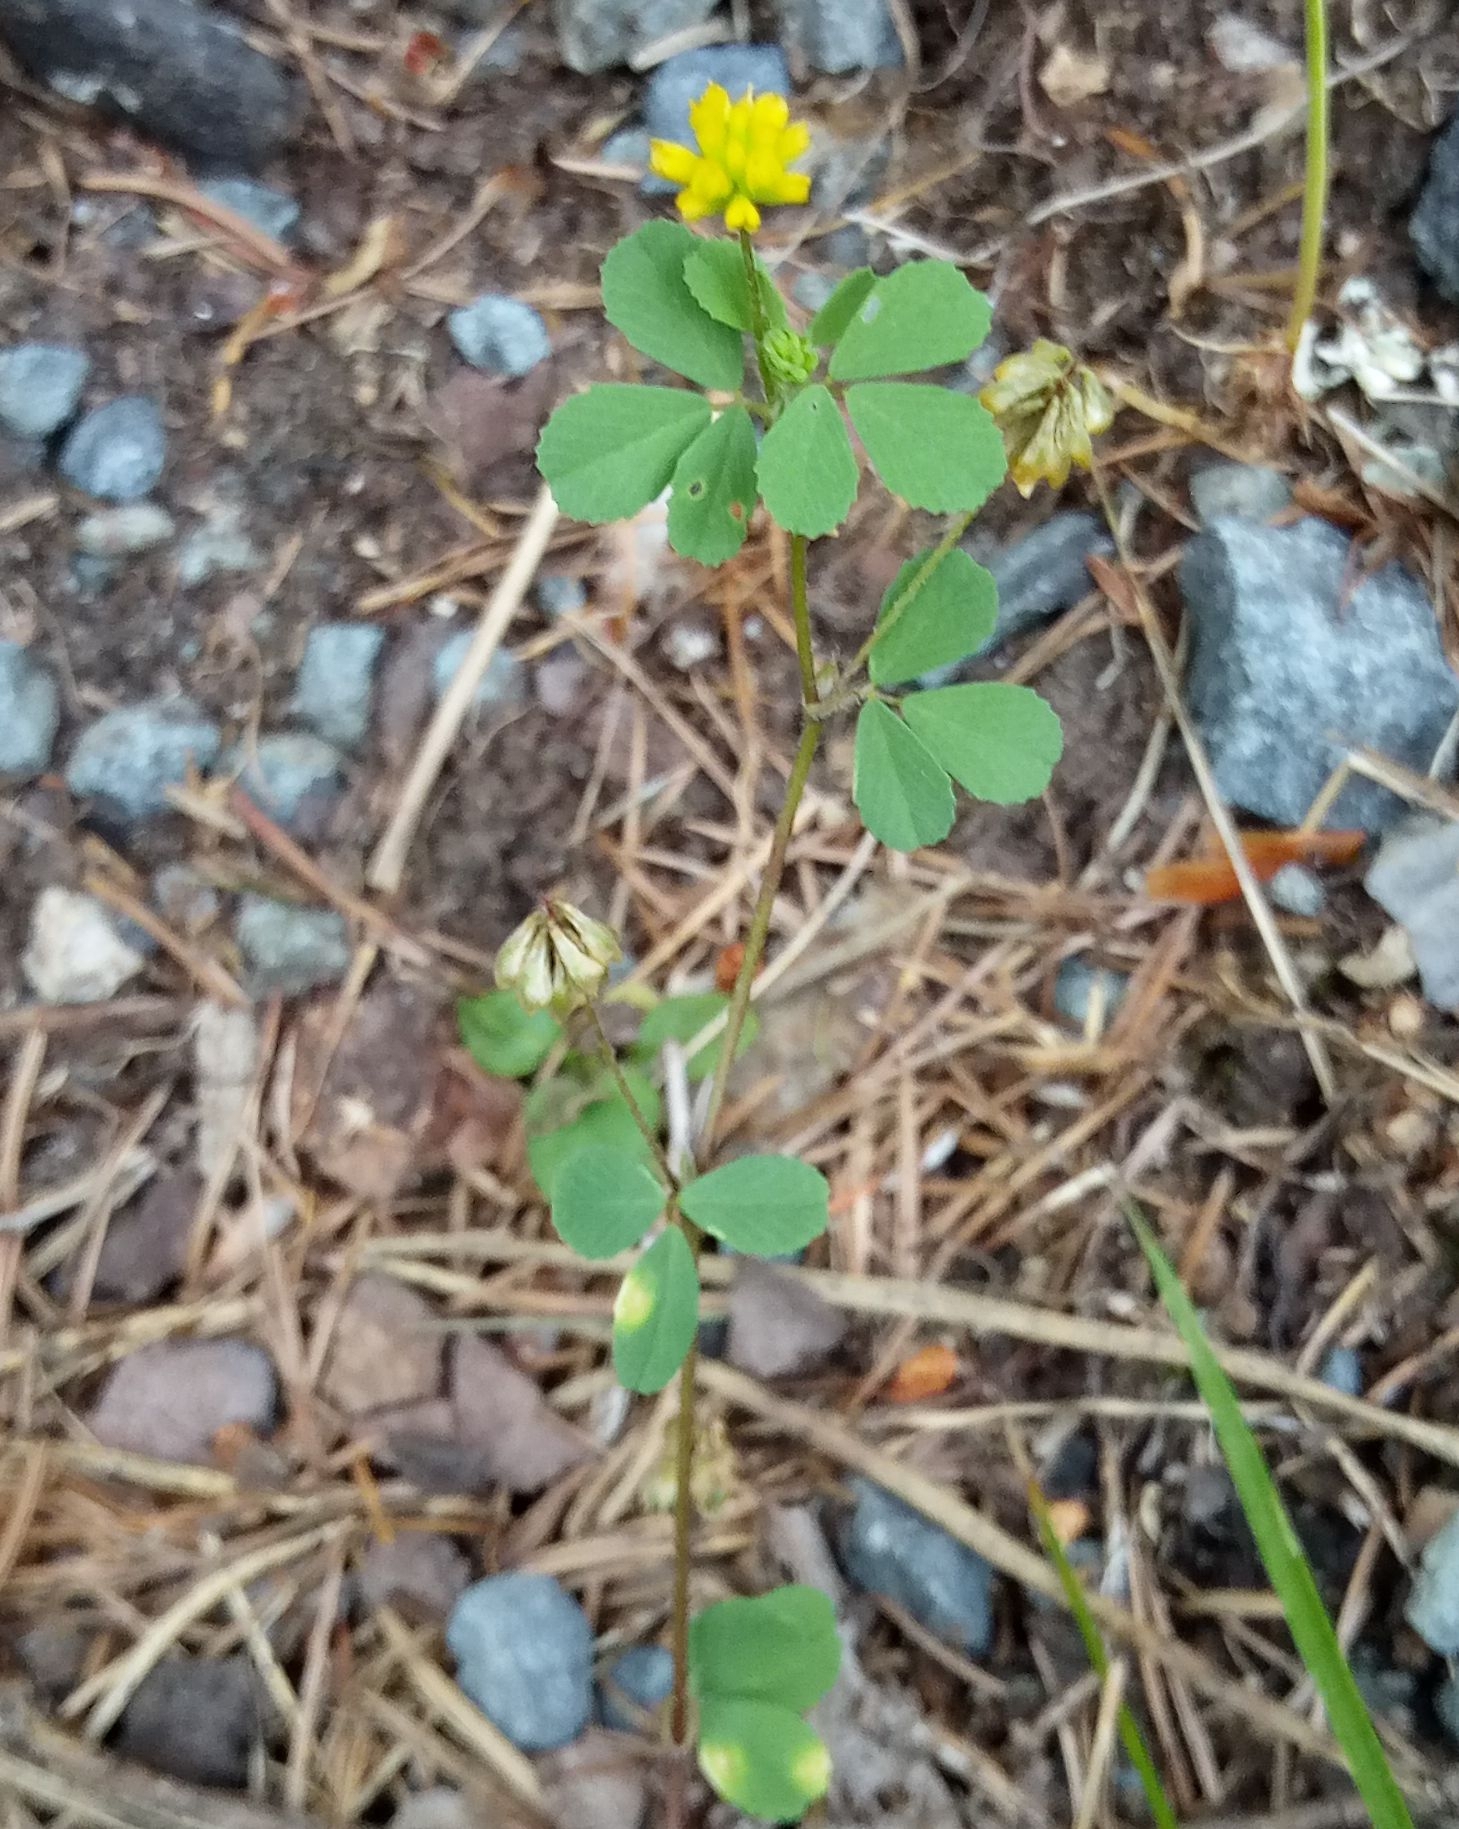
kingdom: Plantae
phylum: Tracheophyta
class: Magnoliopsida
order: Fabales
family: Fabaceae
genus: Trifolium
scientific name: Trifolium dubium
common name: Suckling clover
